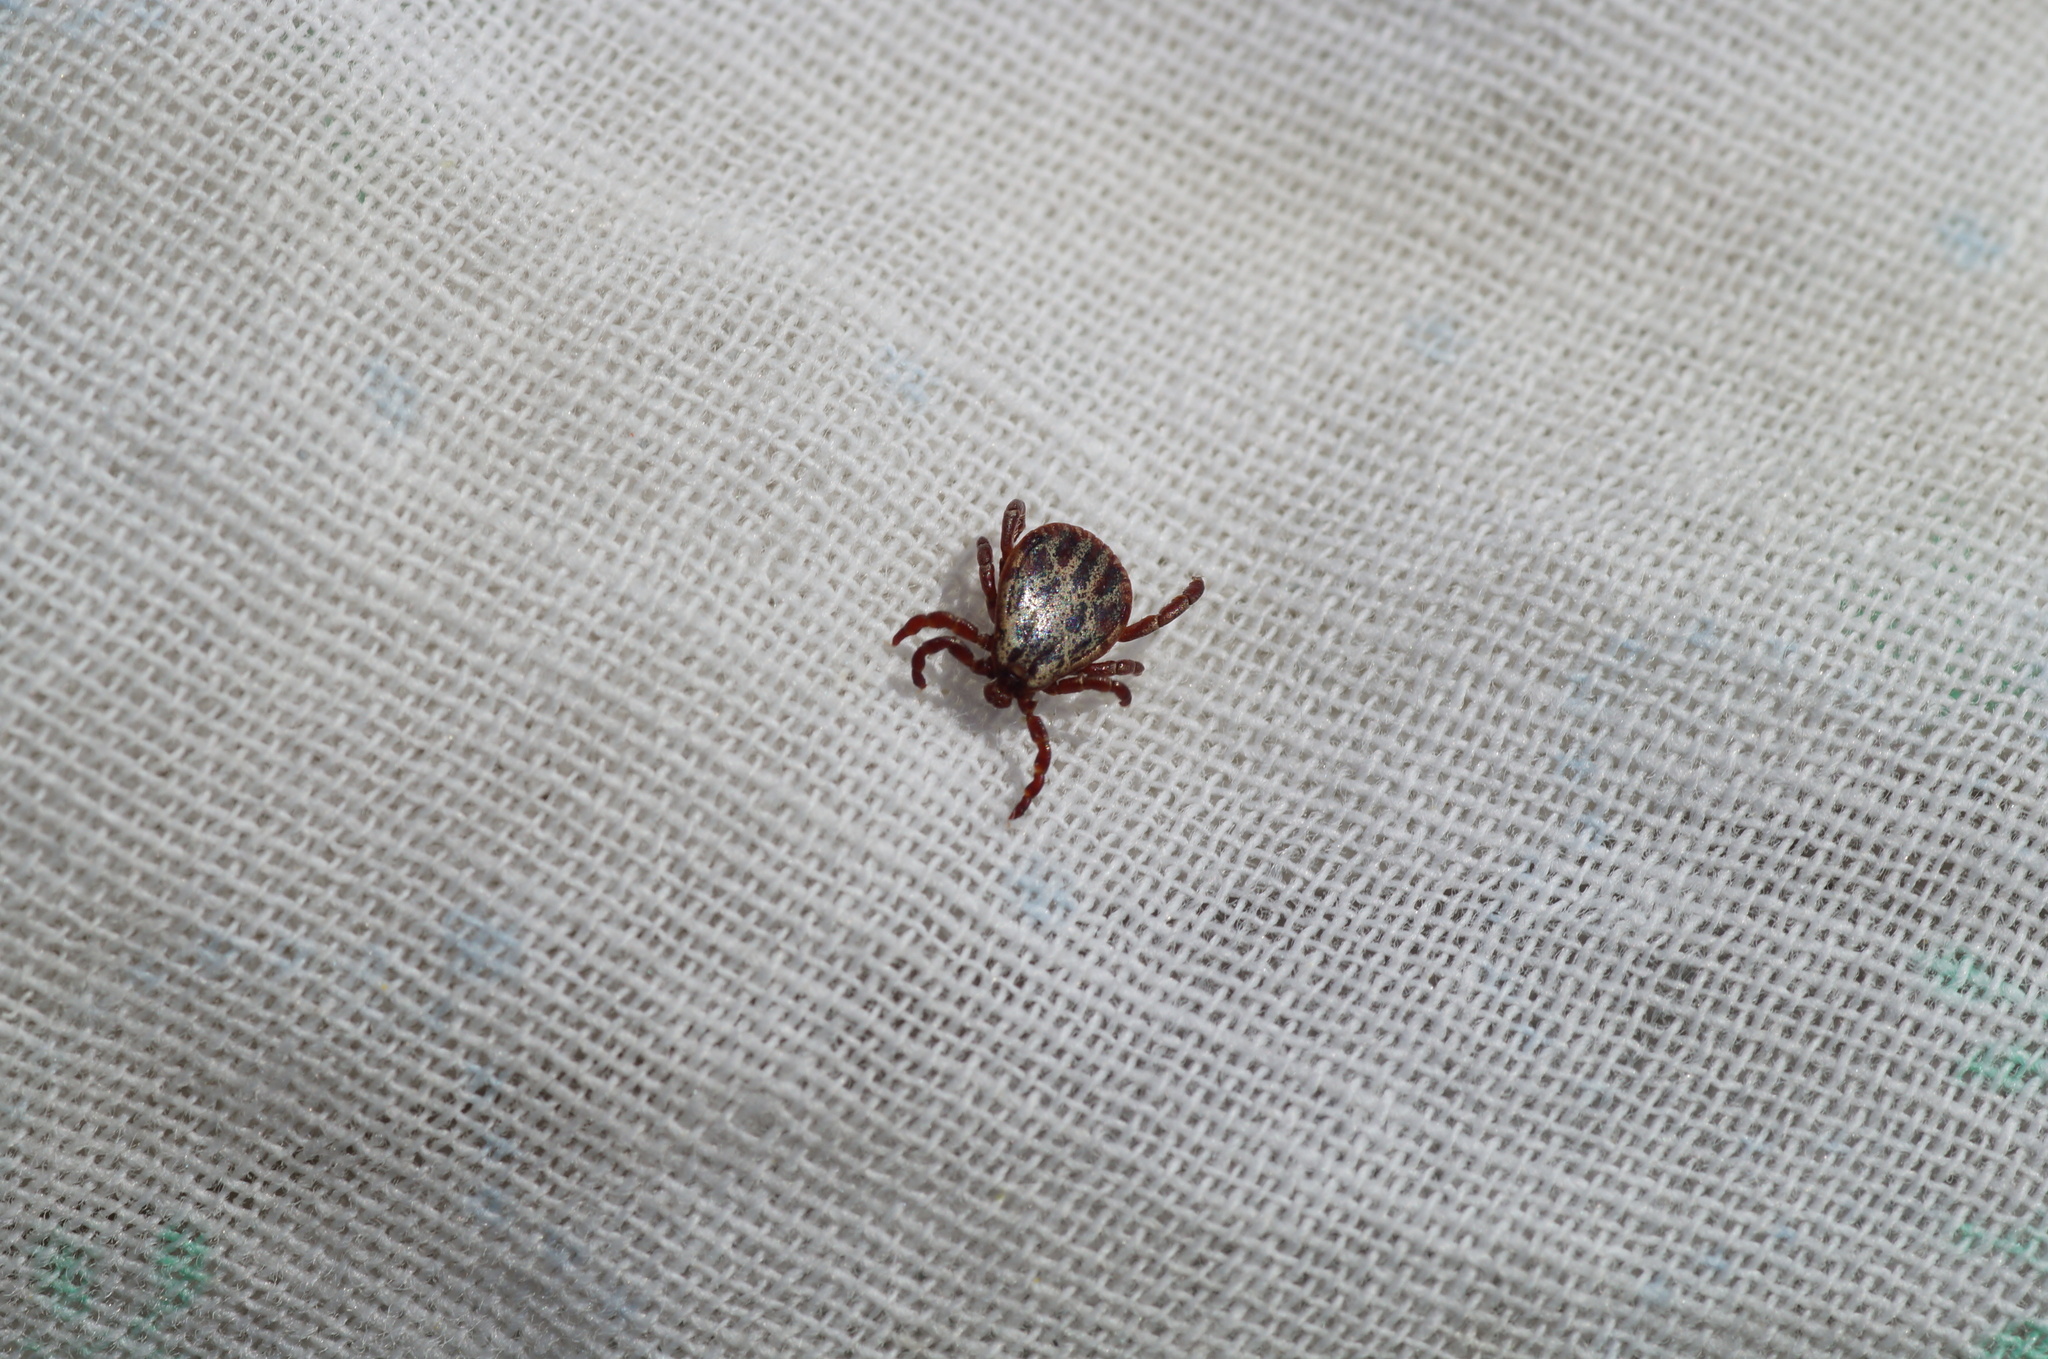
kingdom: Animalia
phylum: Arthropoda
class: Arachnida
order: Ixodida
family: Ixodidae
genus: Dermacentor
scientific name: Dermacentor reticulatus
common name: Ornate cow tick
